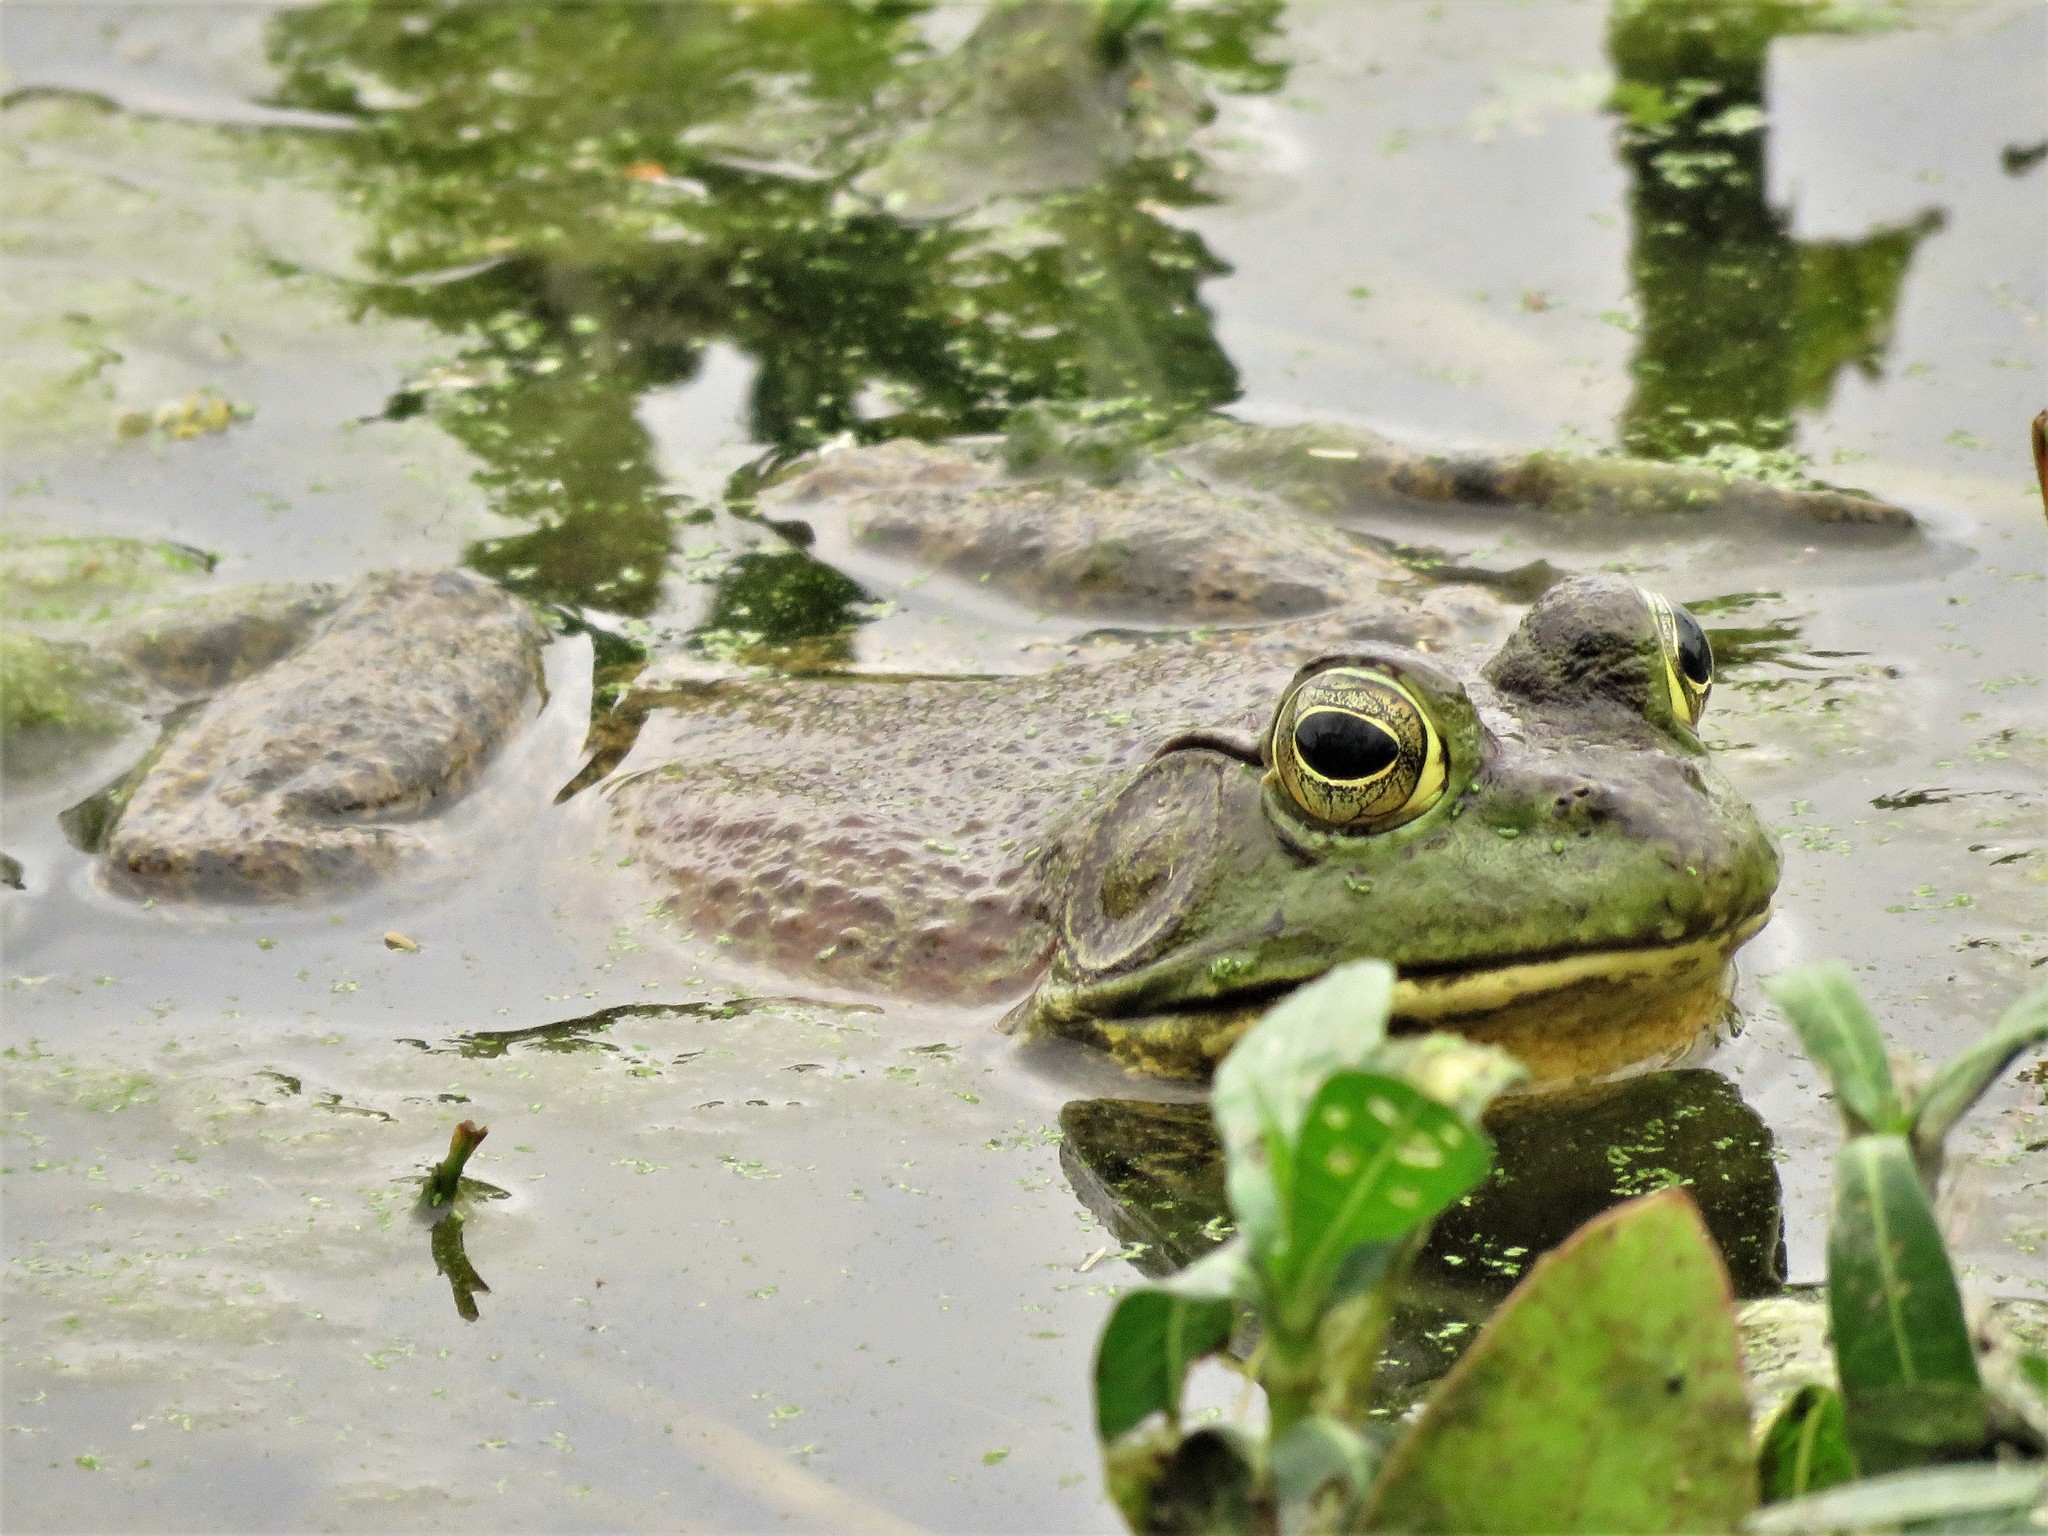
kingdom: Animalia
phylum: Chordata
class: Amphibia
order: Anura
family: Ranidae
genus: Lithobates
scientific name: Lithobates catesbeianus
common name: American bullfrog
